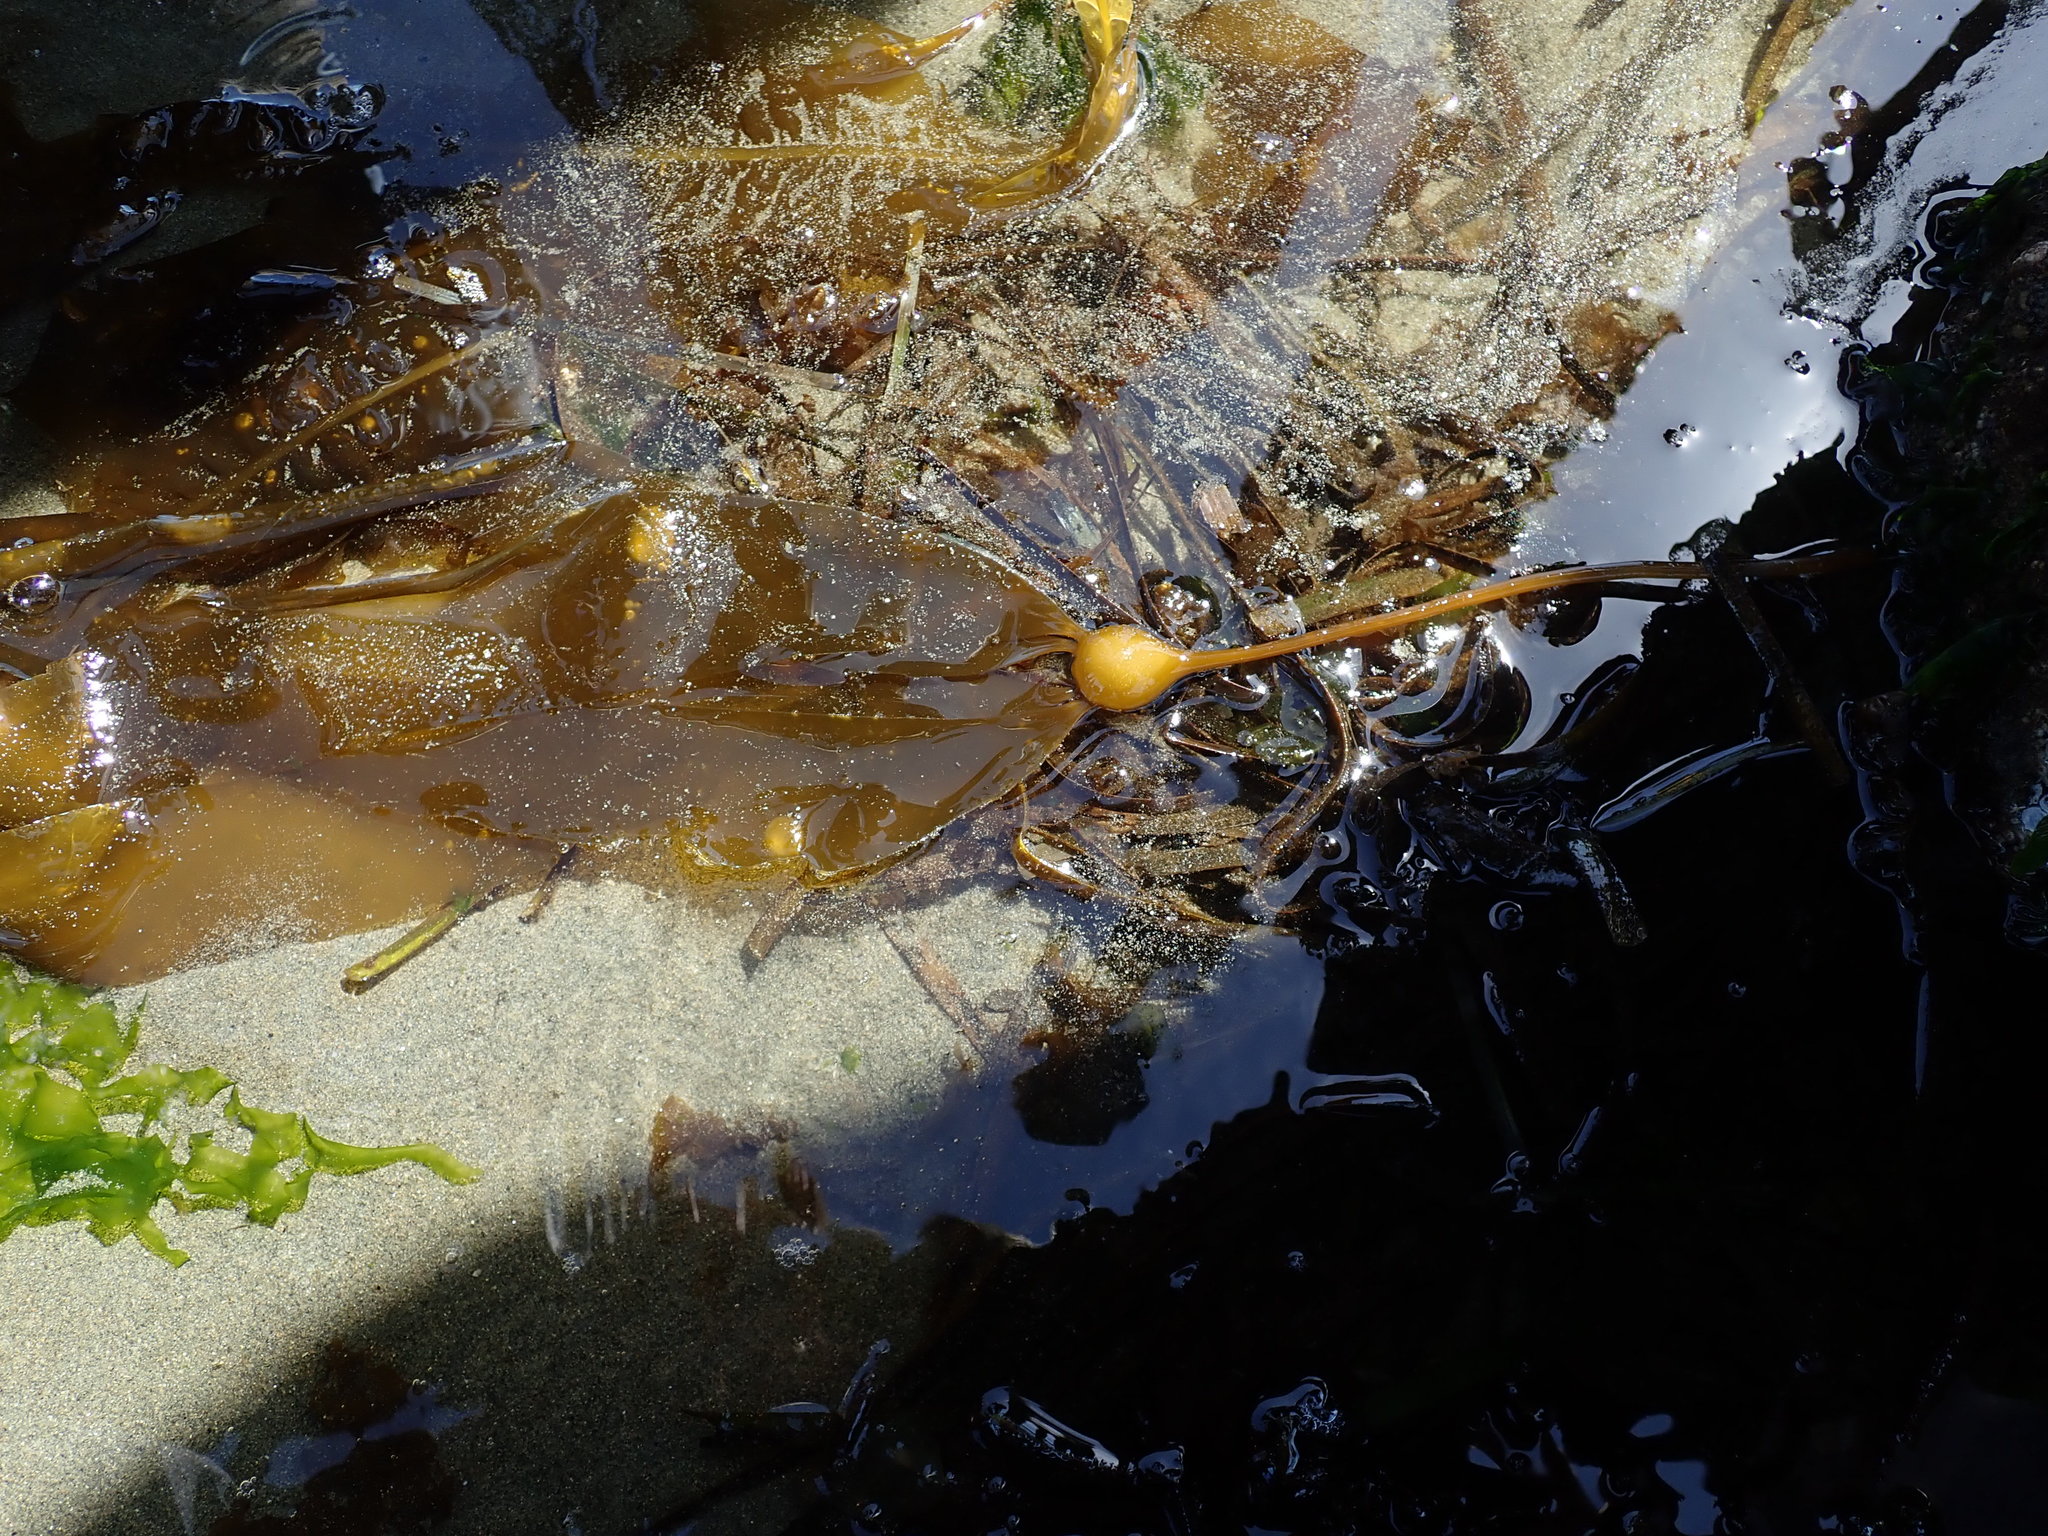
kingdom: Chromista
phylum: Ochrophyta
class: Phaeophyceae
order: Laminariales
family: Laminariaceae
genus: Nereocystis
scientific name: Nereocystis luetkeana
